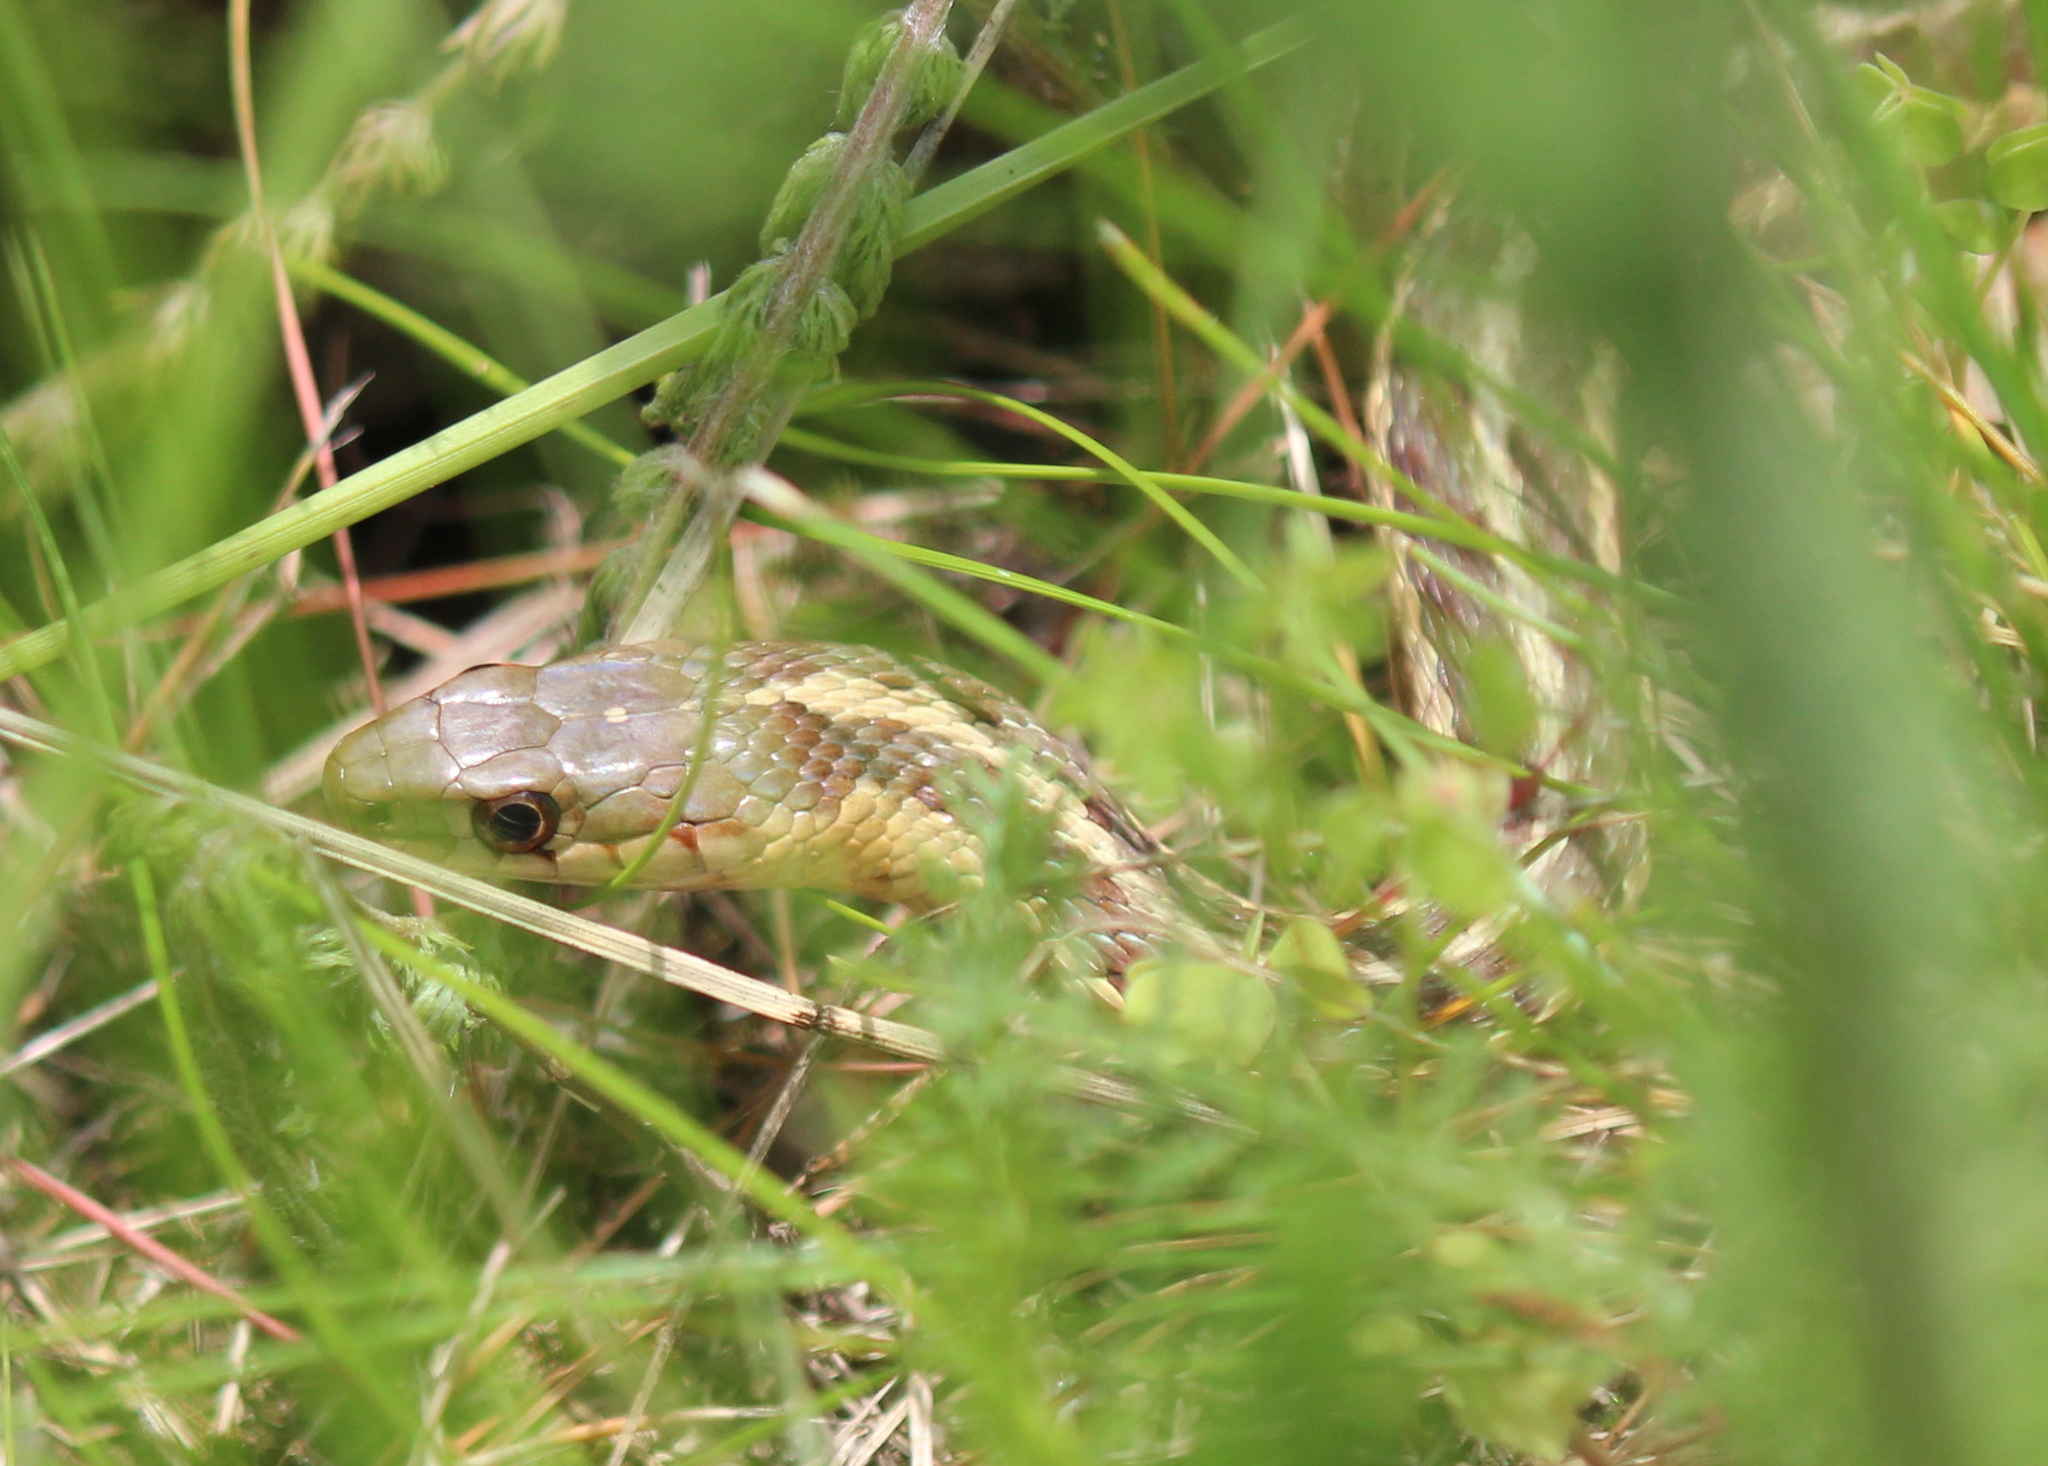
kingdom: Animalia
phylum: Chordata
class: Squamata
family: Colubridae
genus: Thamnophis
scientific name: Thamnophis sirtalis
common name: Common garter snake
